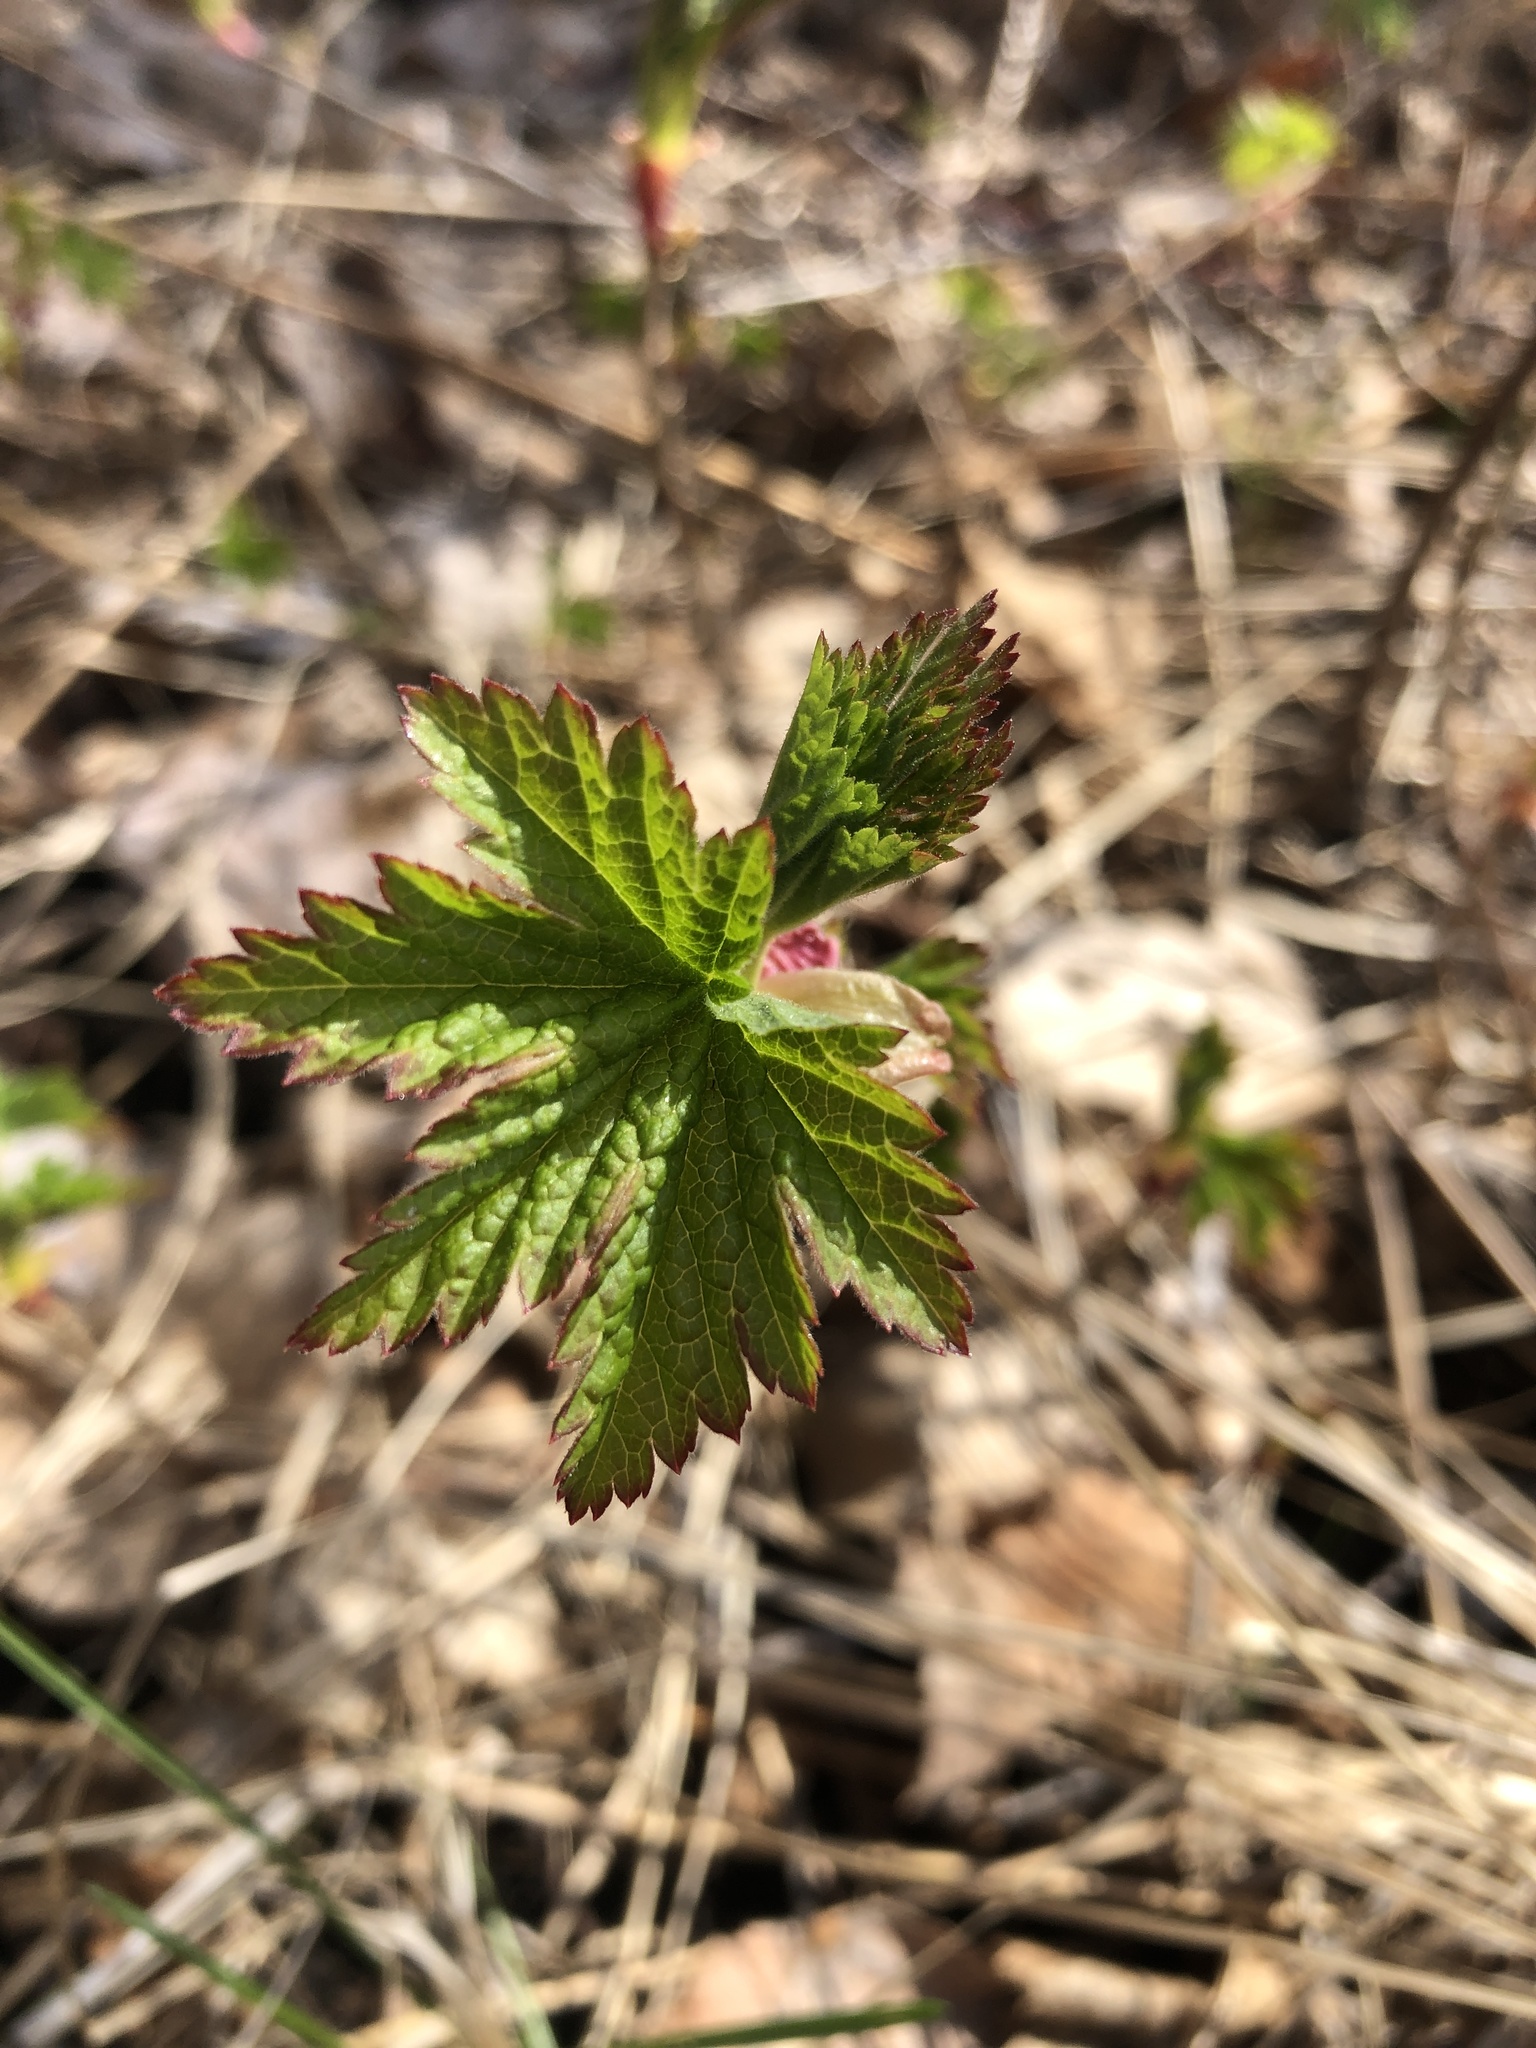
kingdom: Plantae
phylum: Tracheophyta
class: Magnoliopsida
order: Saxifragales
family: Grossulariaceae
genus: Ribes
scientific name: Ribes glandulosum
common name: Skunk currant
